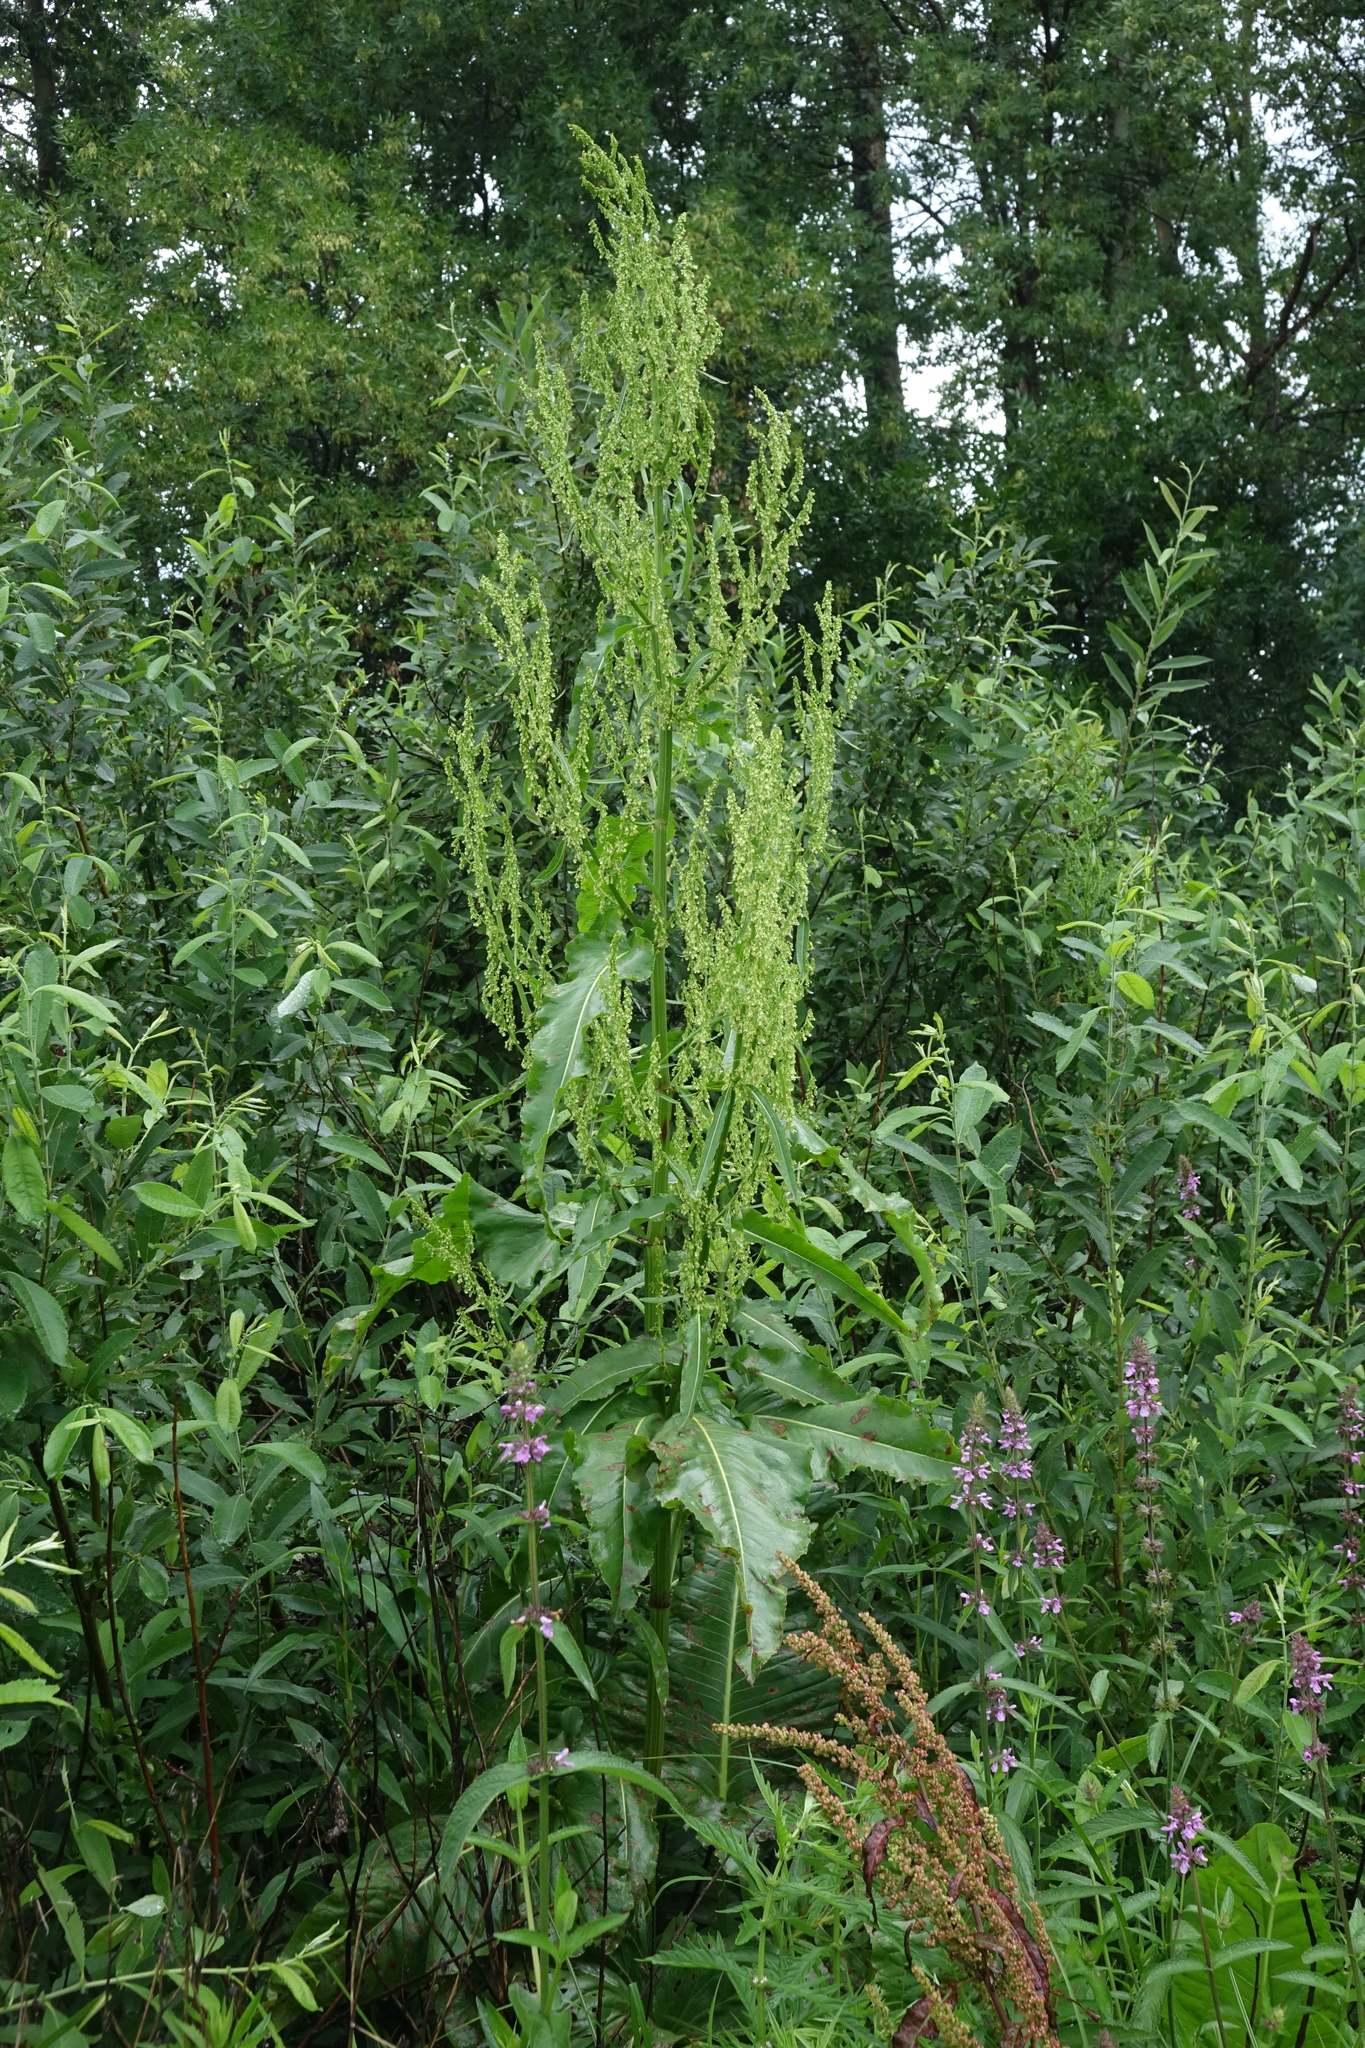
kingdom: Plantae
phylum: Tracheophyta
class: Magnoliopsida
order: Caryophyllales
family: Polygonaceae
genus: Rumex
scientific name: Rumex aquaticus
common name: Scottish dock
